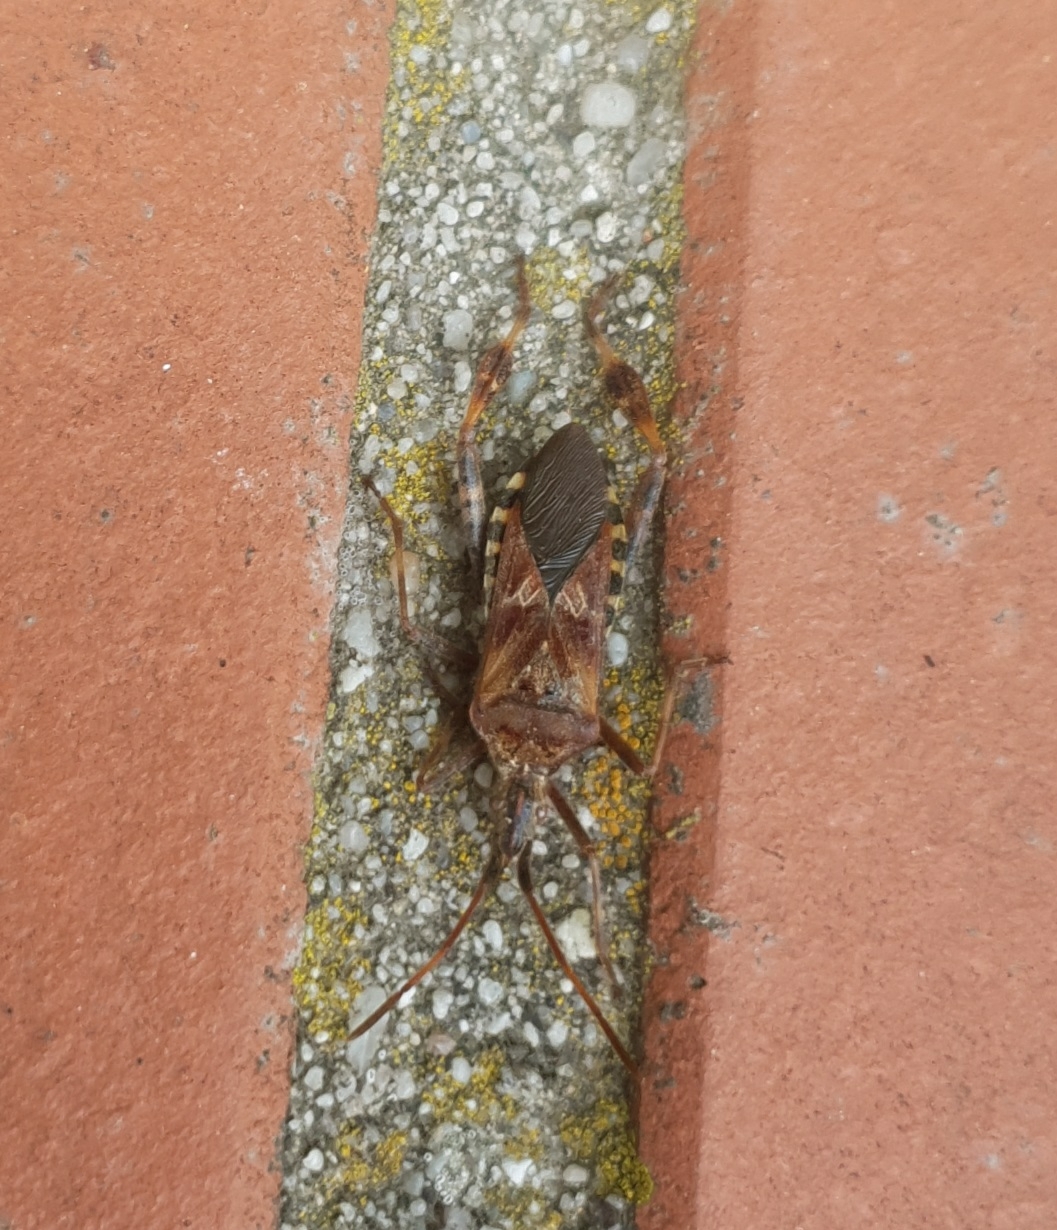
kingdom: Animalia
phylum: Arthropoda
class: Insecta
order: Hemiptera
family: Coreidae
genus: Leptoglossus
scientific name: Leptoglossus occidentalis
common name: Western conifer-seed bug
